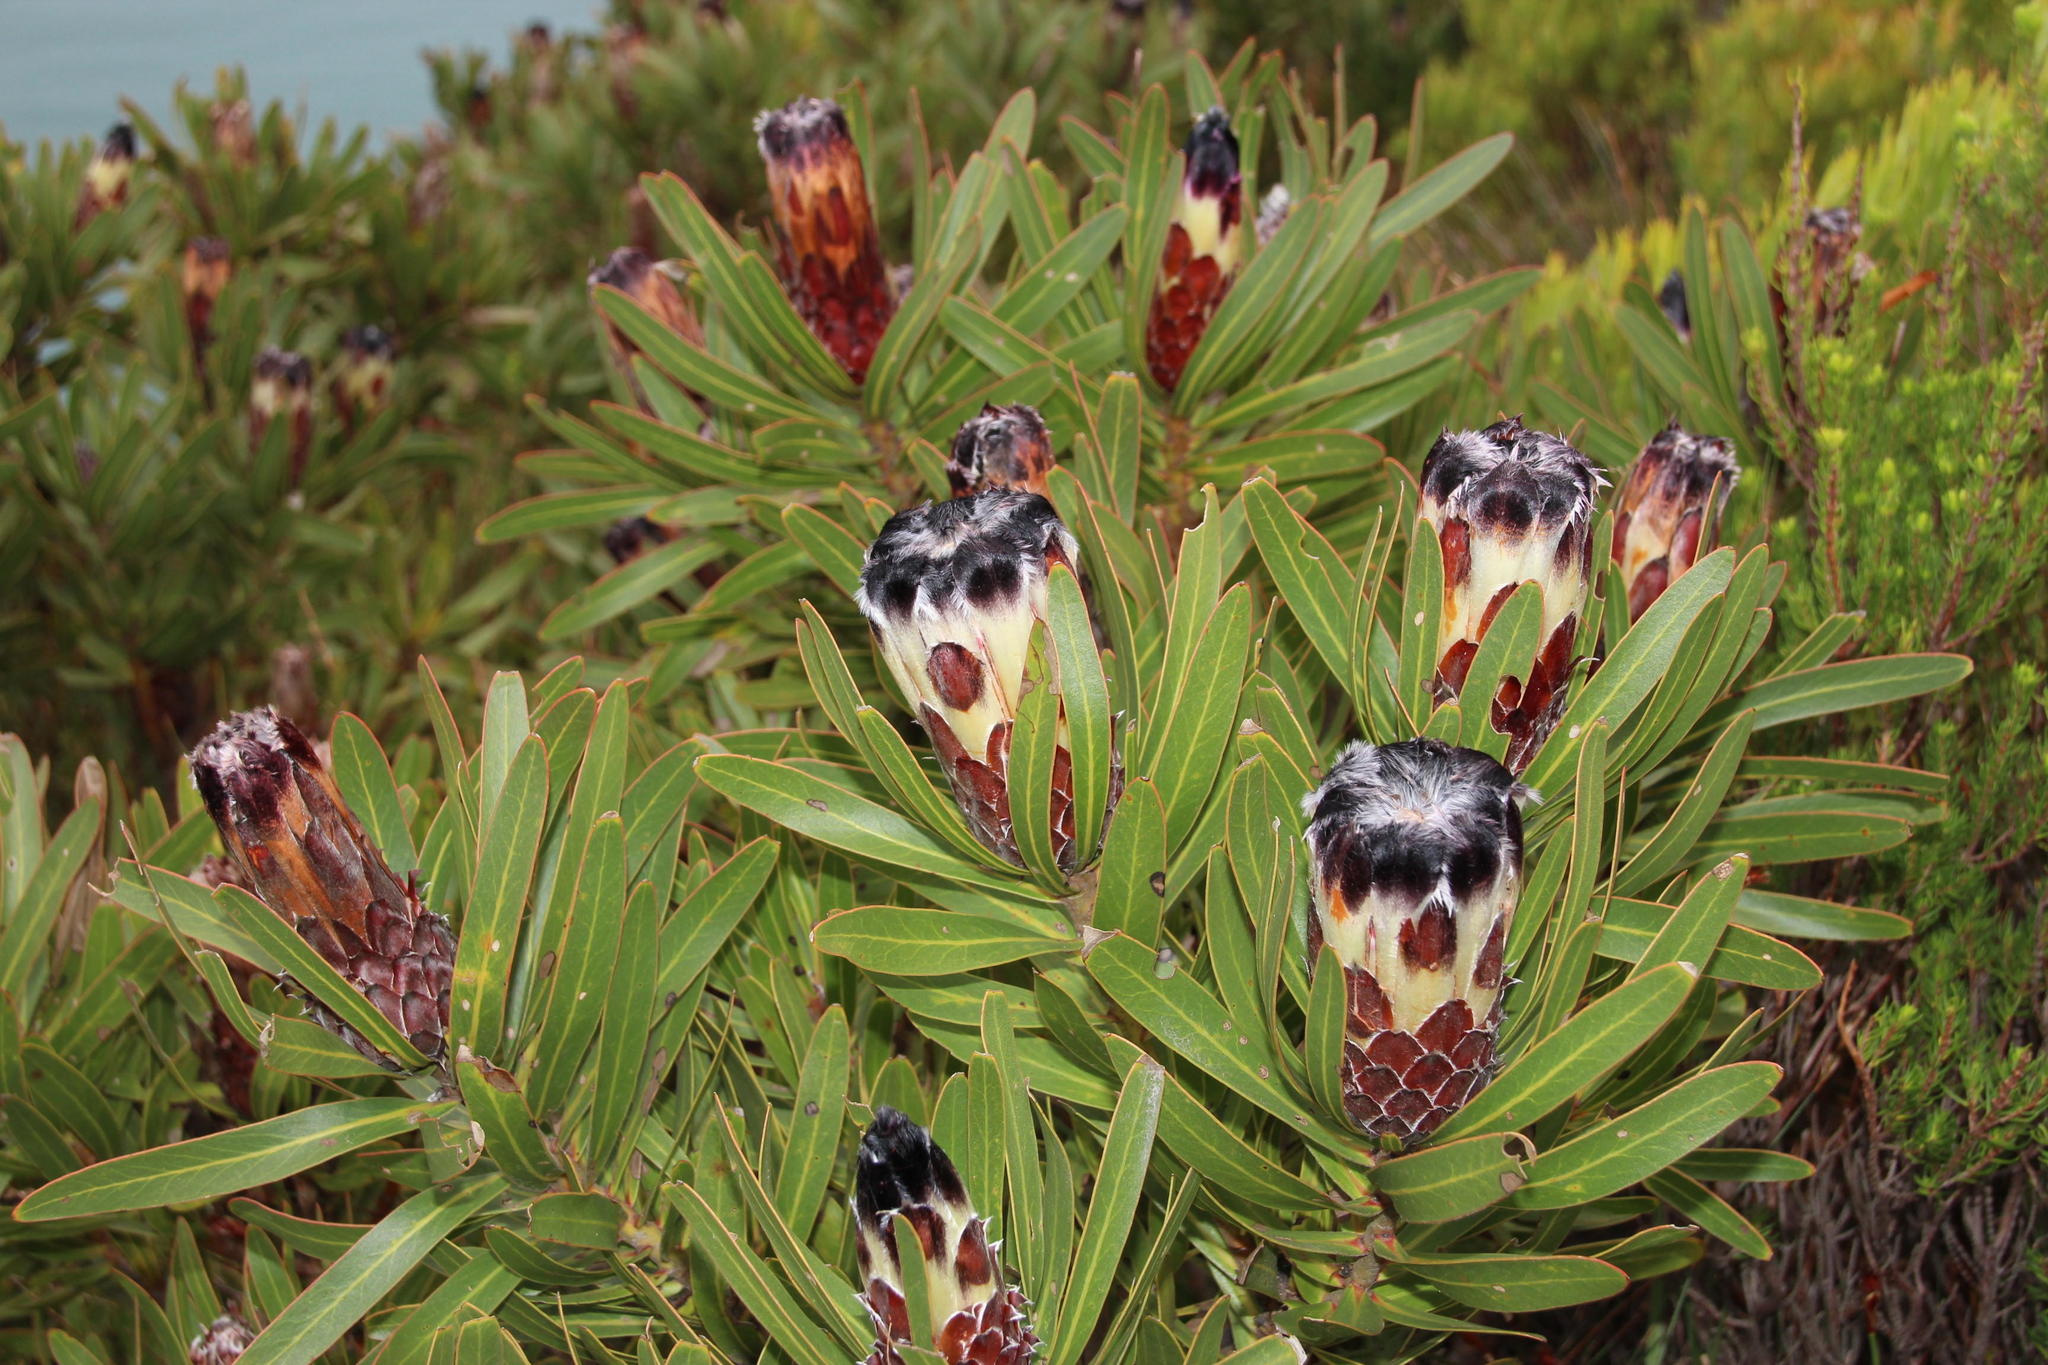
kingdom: Plantae
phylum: Tracheophyta
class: Magnoliopsida
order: Proteales
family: Proteaceae
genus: Protea
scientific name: Protea lepidocarpodendron
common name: Black-bearded protea
